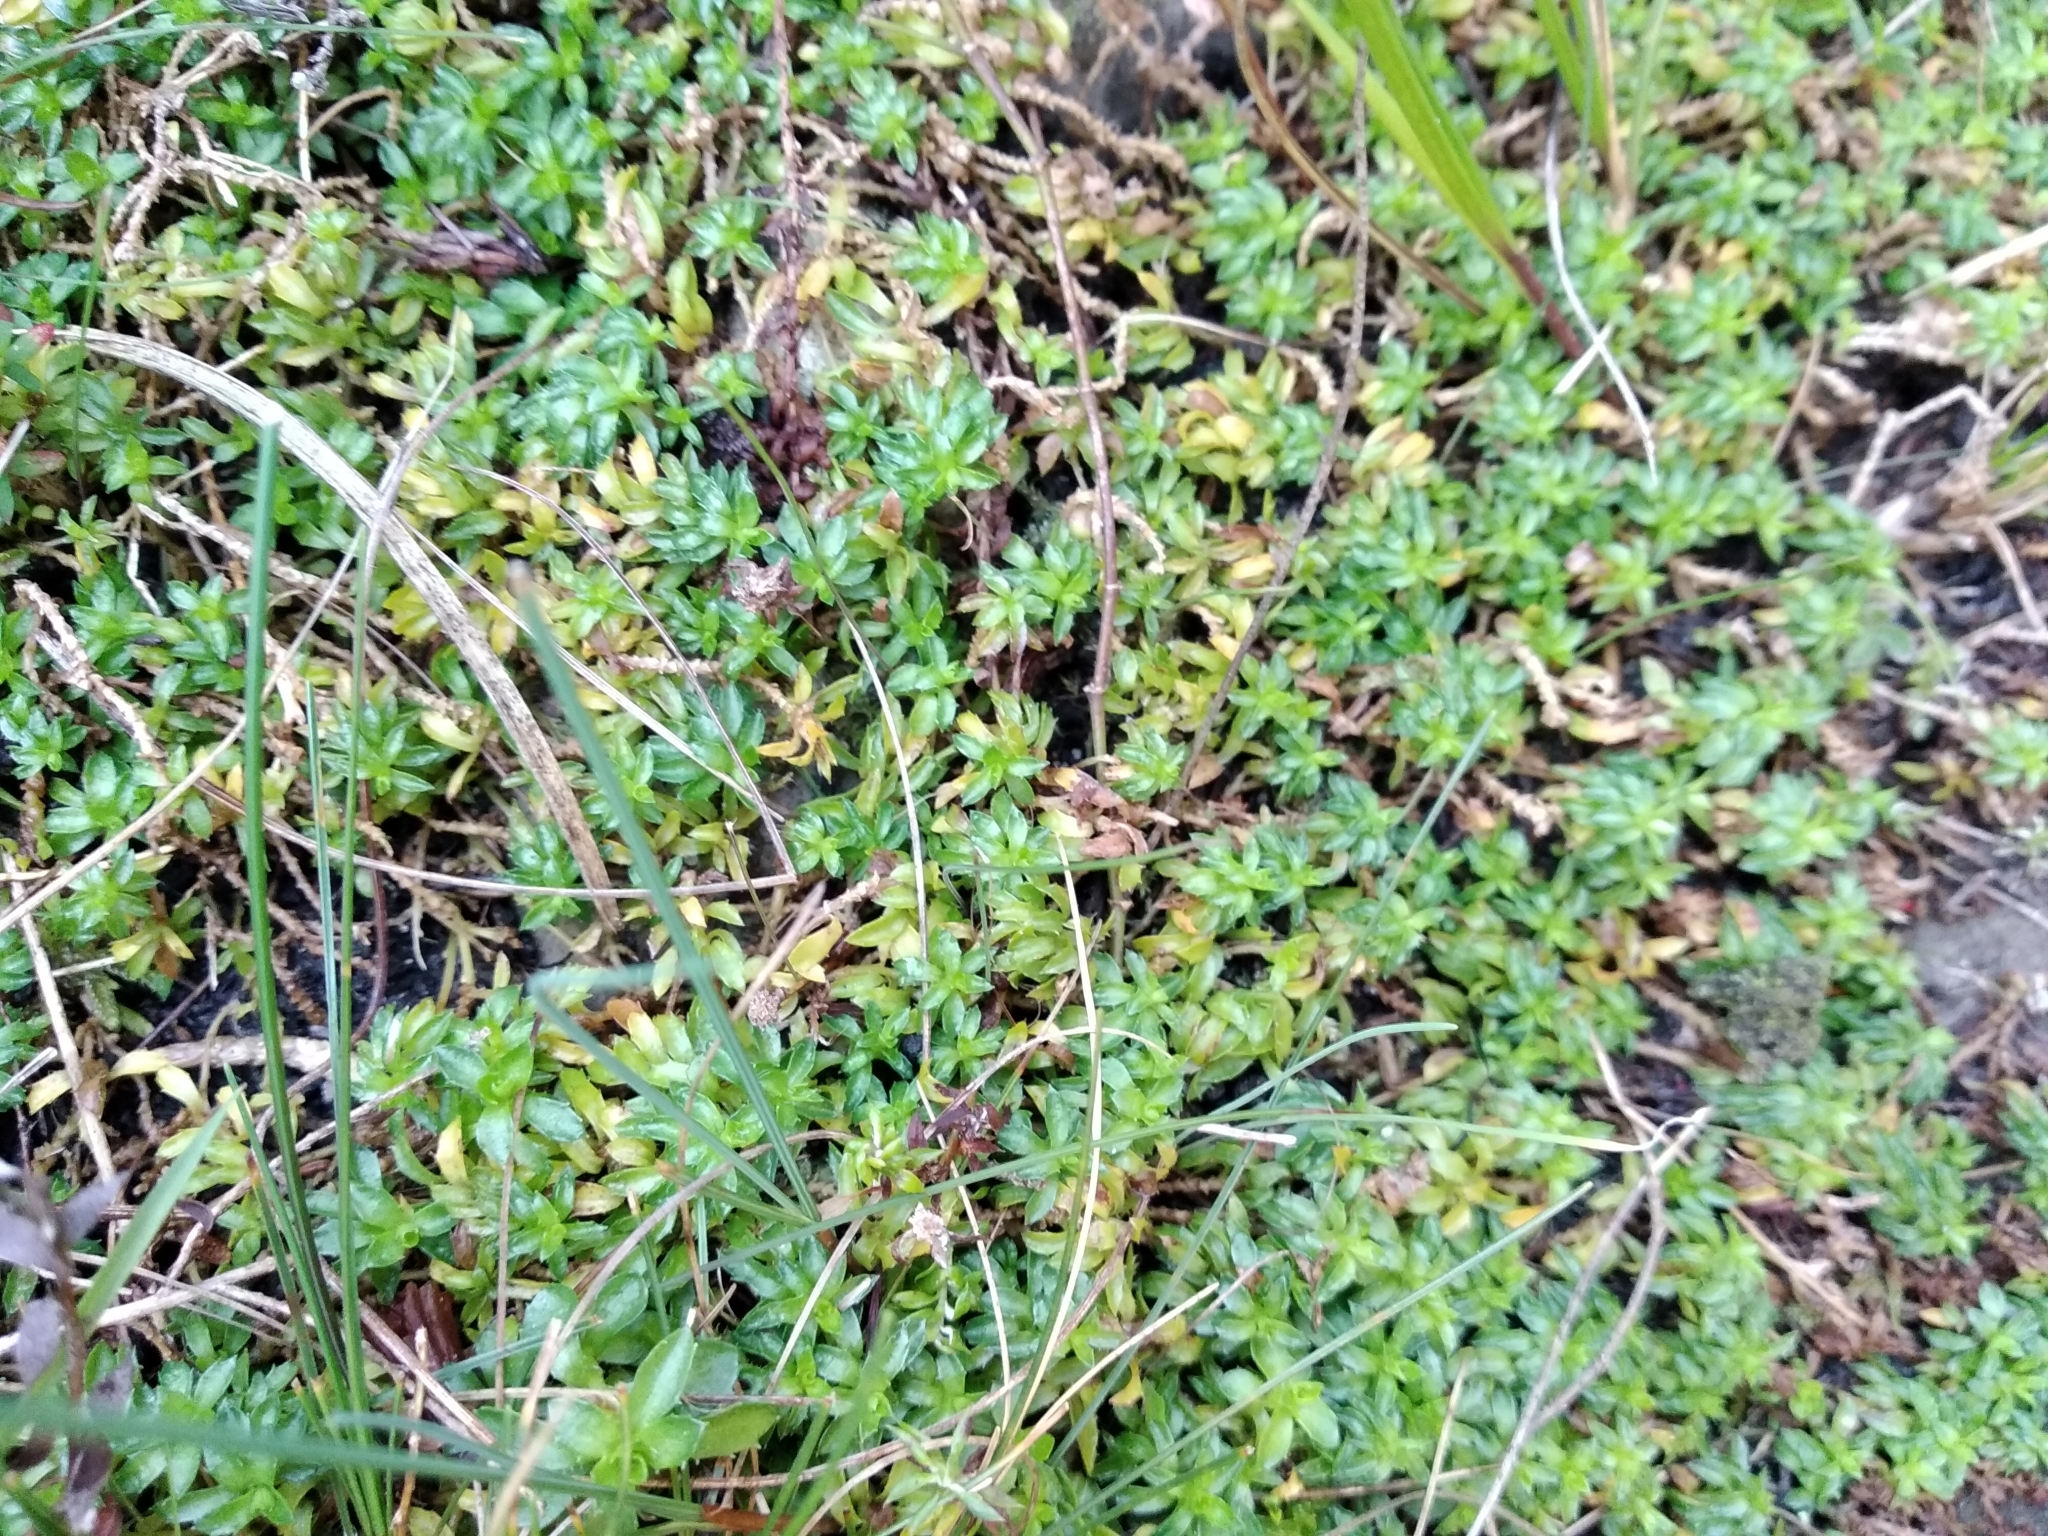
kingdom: Plantae
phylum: Tracheophyta
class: Magnoliopsida
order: Asterales
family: Campanulaceae
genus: Roella
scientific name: Roella muscosa
